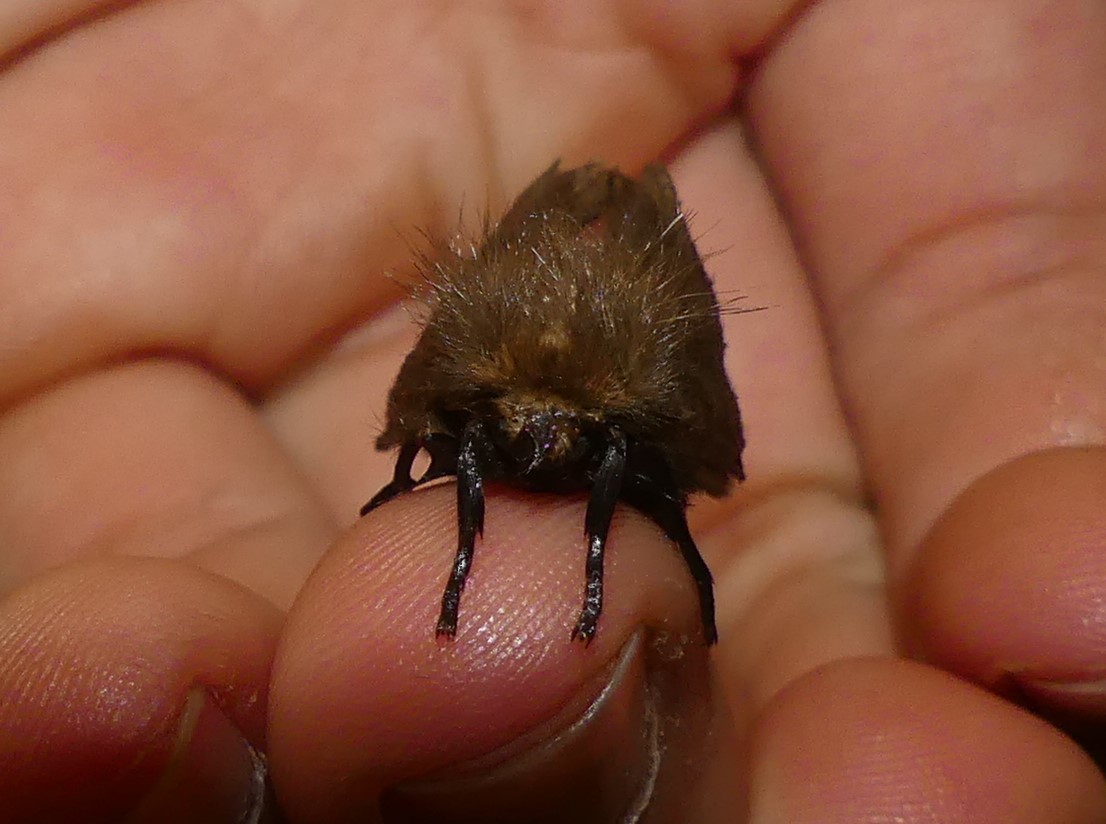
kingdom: Animalia
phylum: Arthropoda
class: Insecta
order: Lepidoptera
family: Notodontidae
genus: Ochrogaster
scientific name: Ochrogaster lunifer
